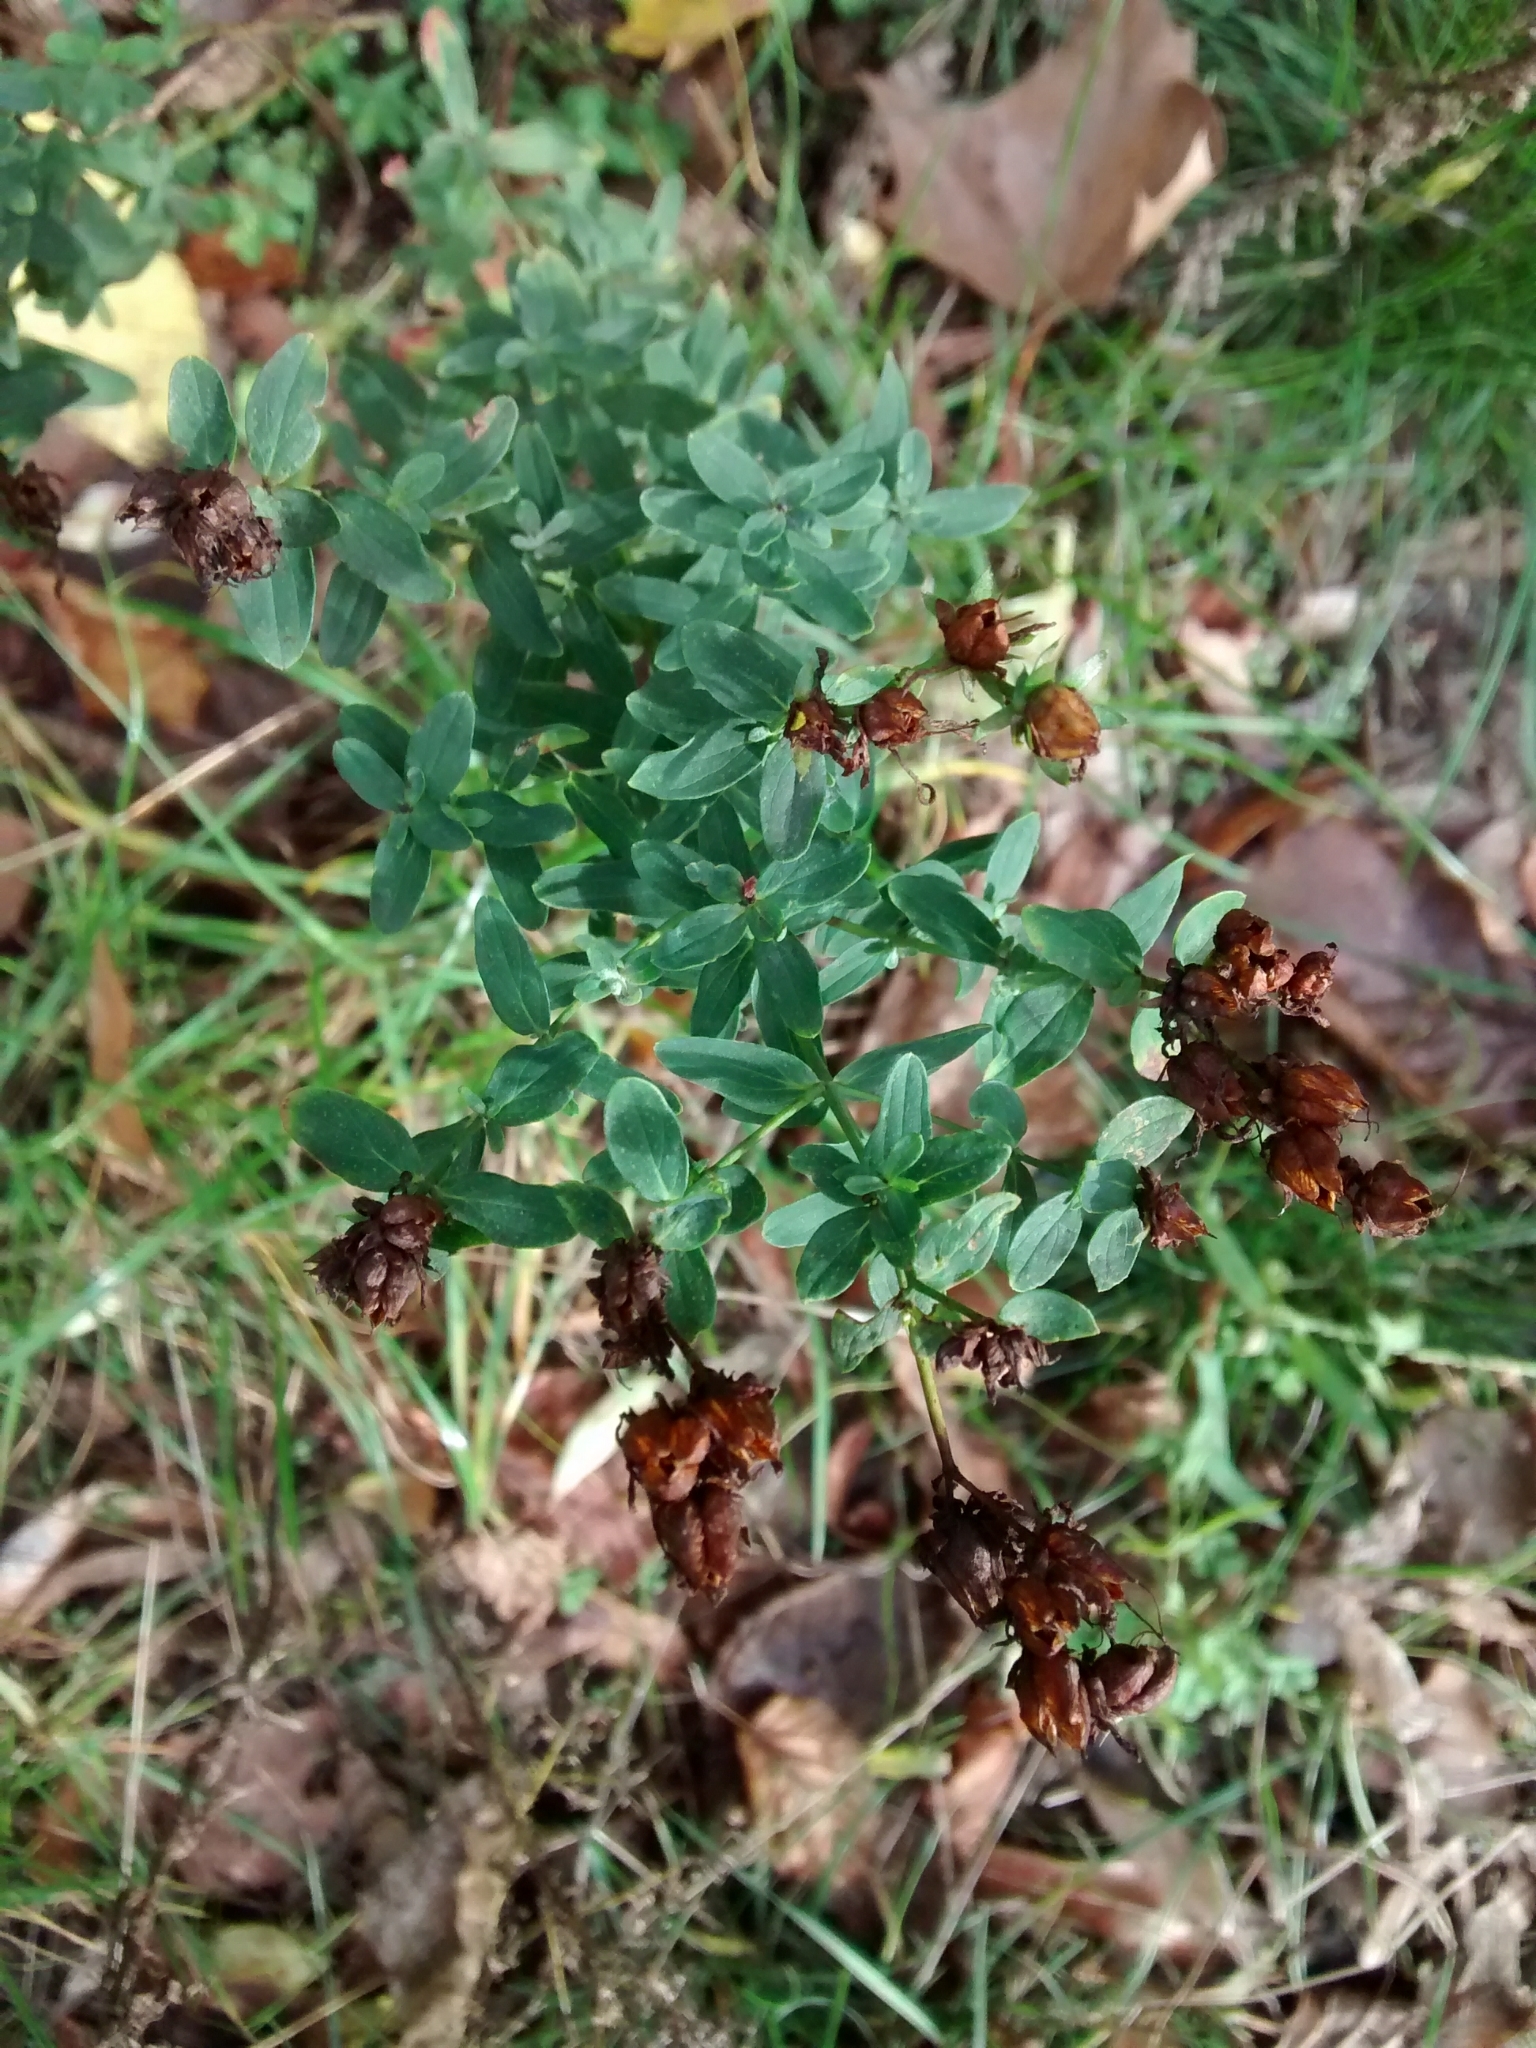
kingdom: Plantae
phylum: Tracheophyta
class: Magnoliopsida
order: Malpighiales
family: Hypericaceae
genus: Hypericum
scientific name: Hypericum perforatum
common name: Common st. johnswort
